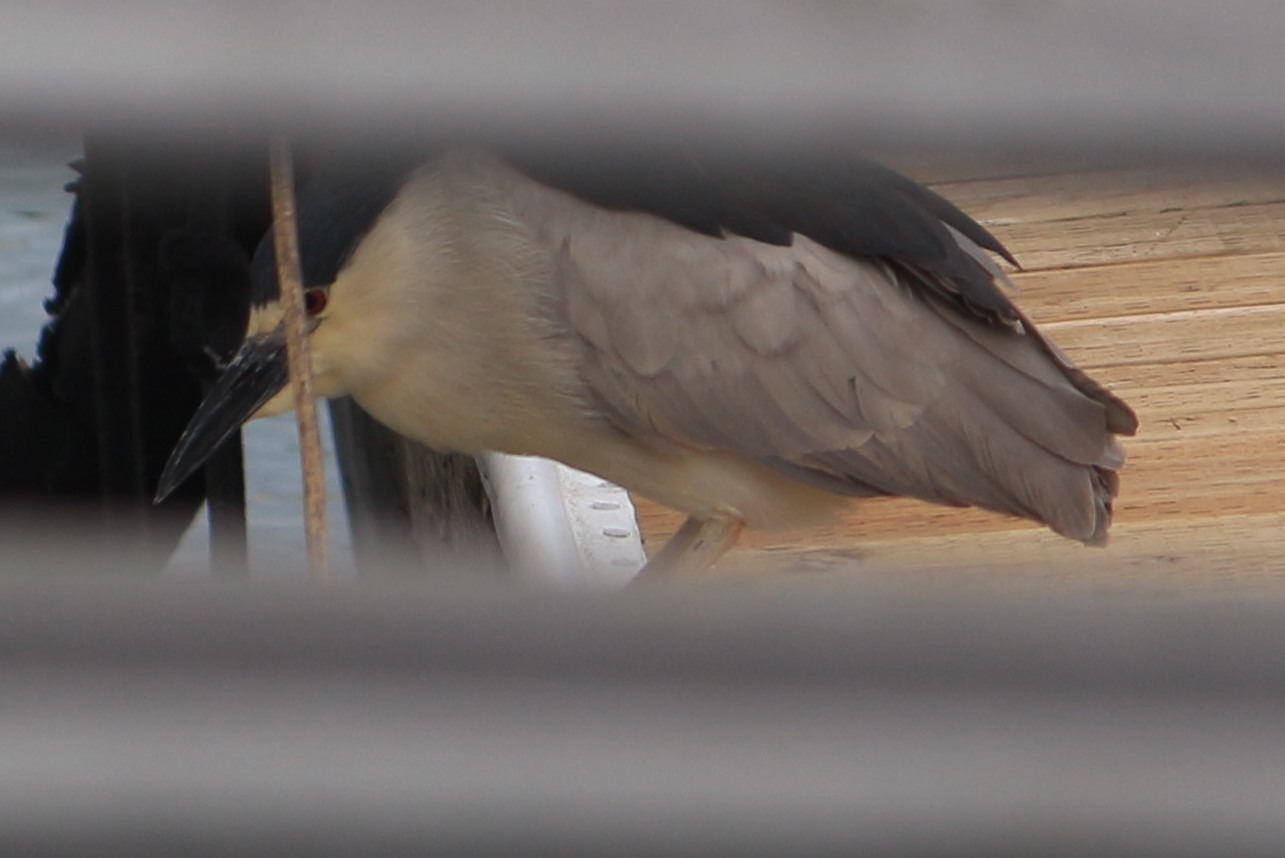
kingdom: Animalia
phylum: Chordata
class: Aves
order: Pelecaniformes
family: Ardeidae
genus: Nycticorax
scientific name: Nycticorax nycticorax
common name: Black-crowned night heron
